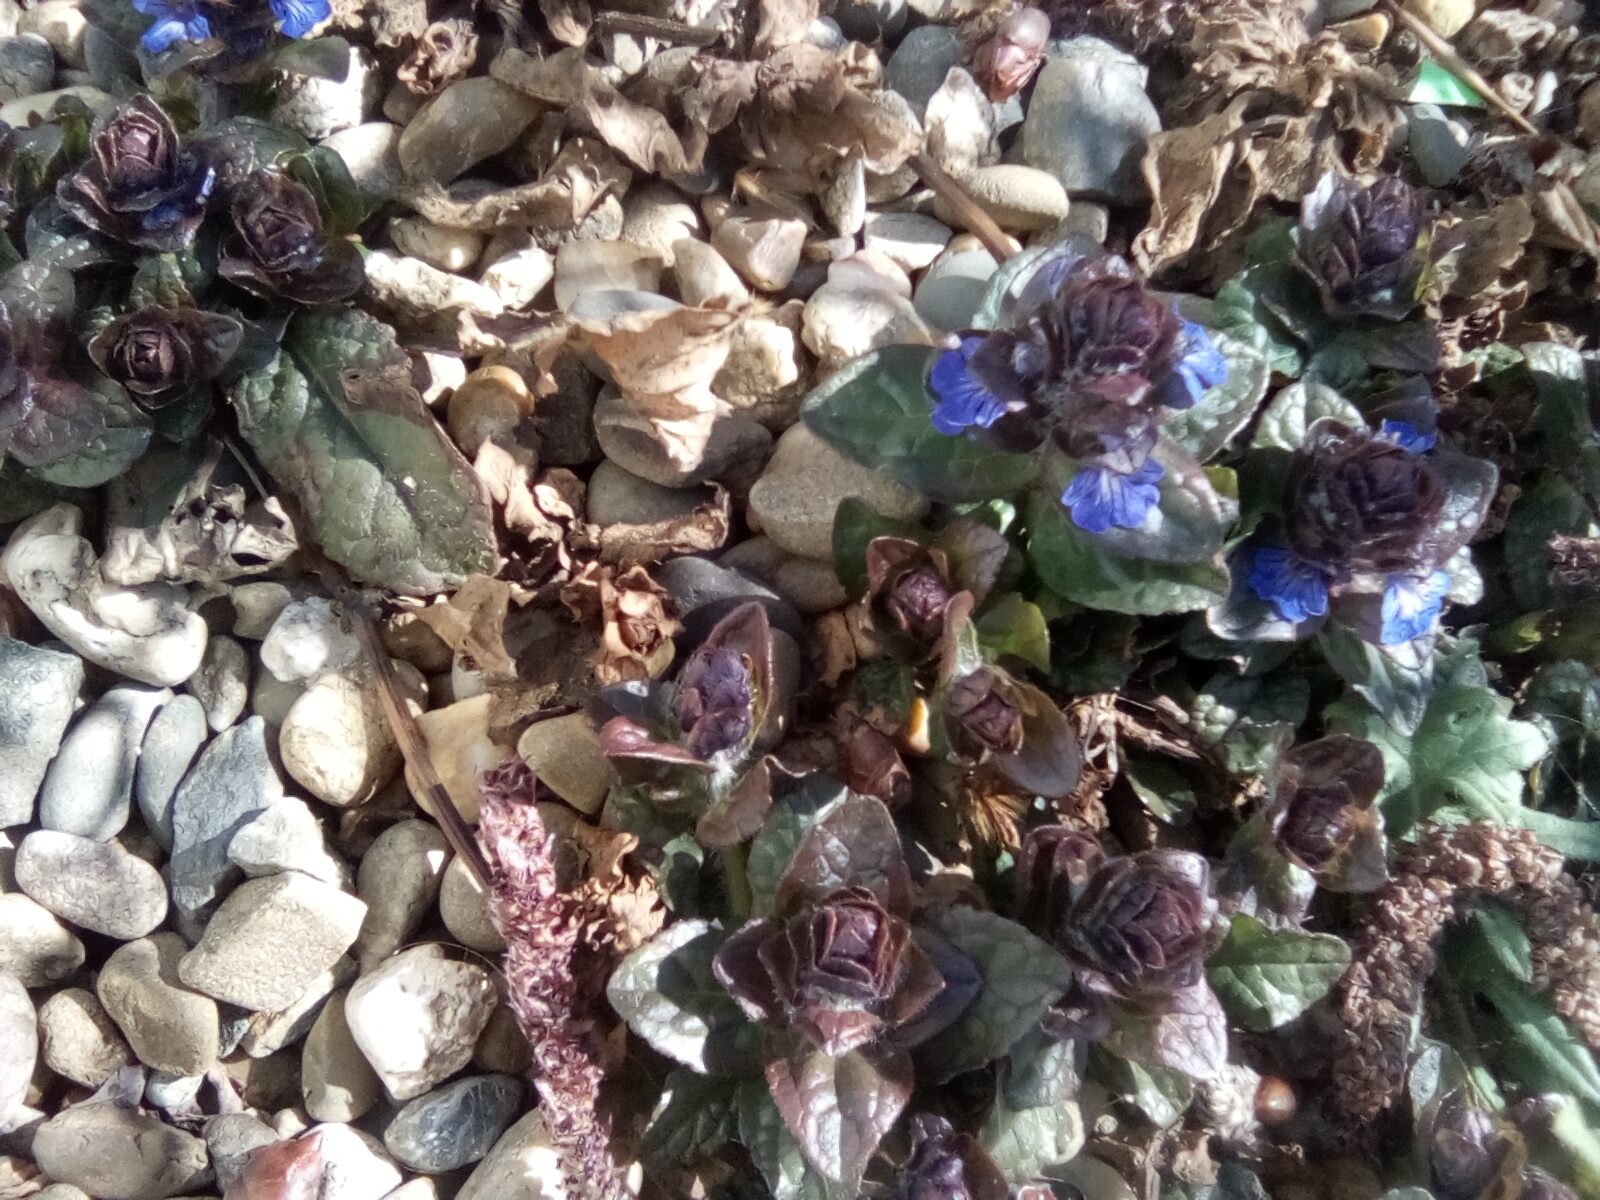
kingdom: Plantae
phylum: Tracheophyta
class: Magnoliopsida
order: Lamiales
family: Lamiaceae
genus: Ajuga
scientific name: Ajuga reptans
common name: Bugle
